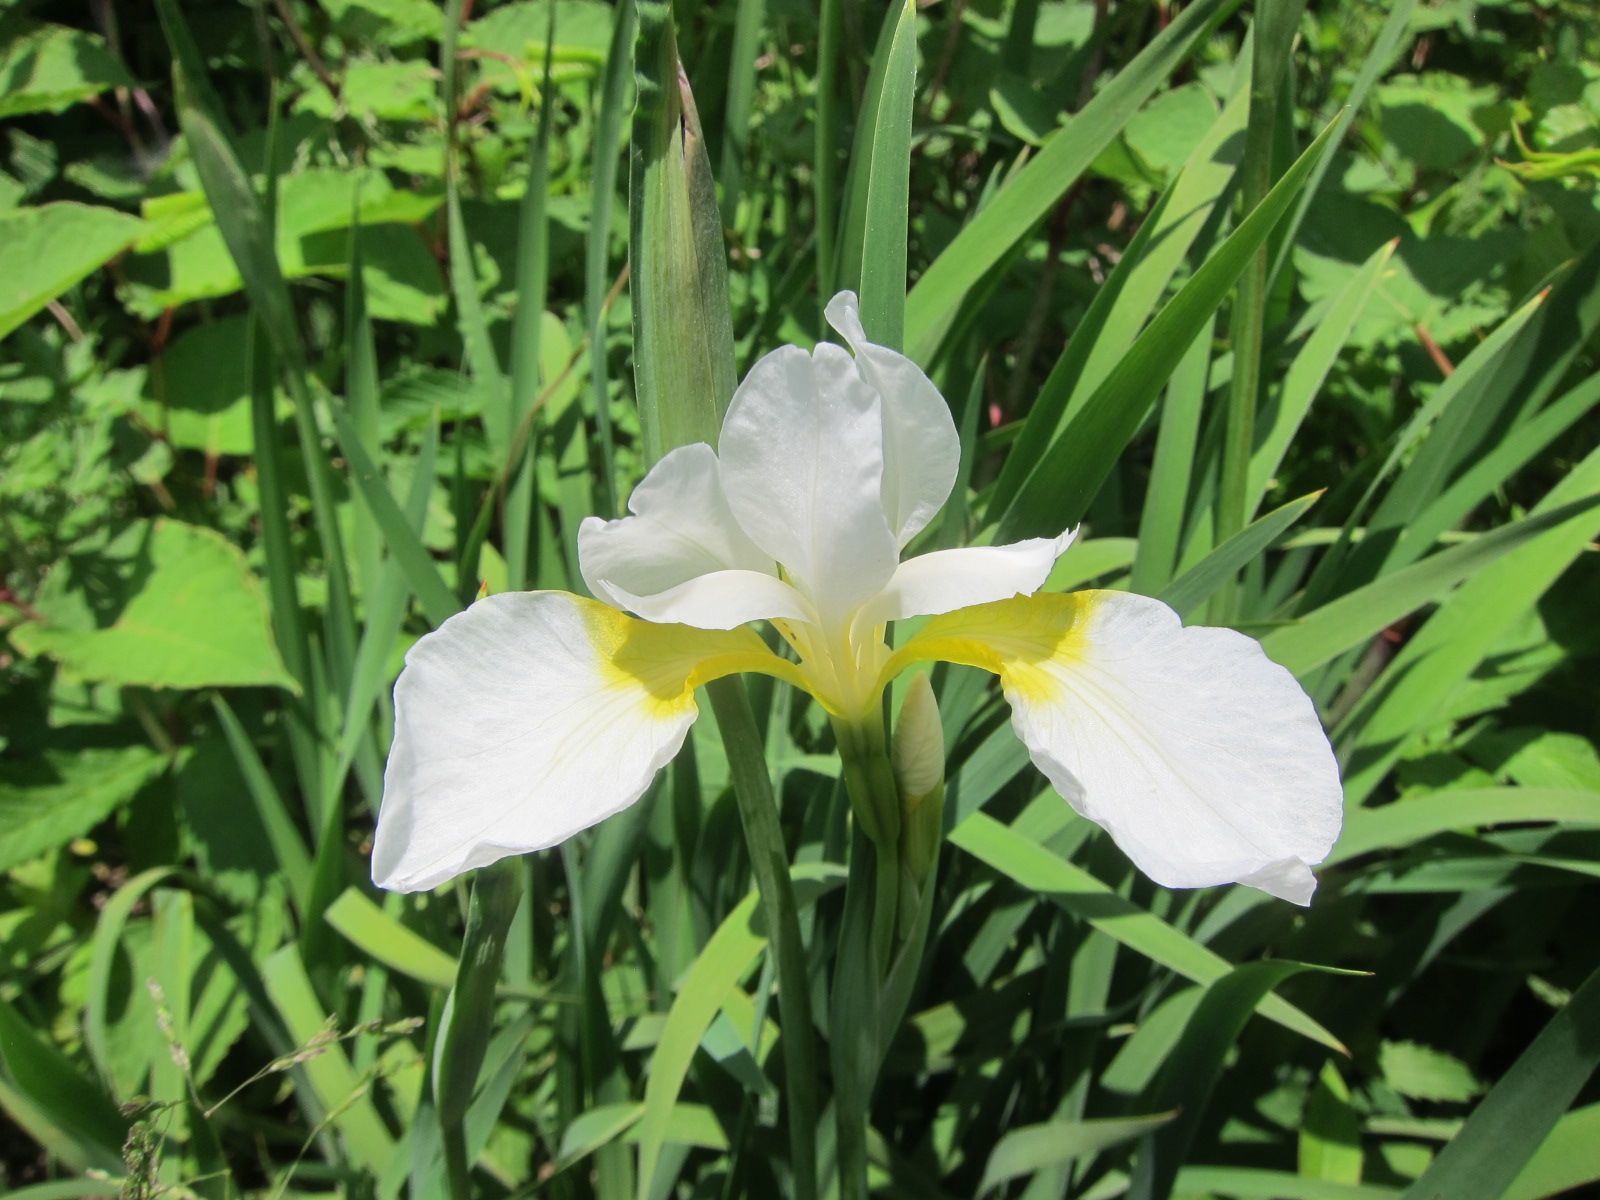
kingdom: Plantae
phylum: Tracheophyta
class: Liliopsida
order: Asparagales
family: Iridaceae
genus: Iris
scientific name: Iris sanguinea
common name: Blood iris
